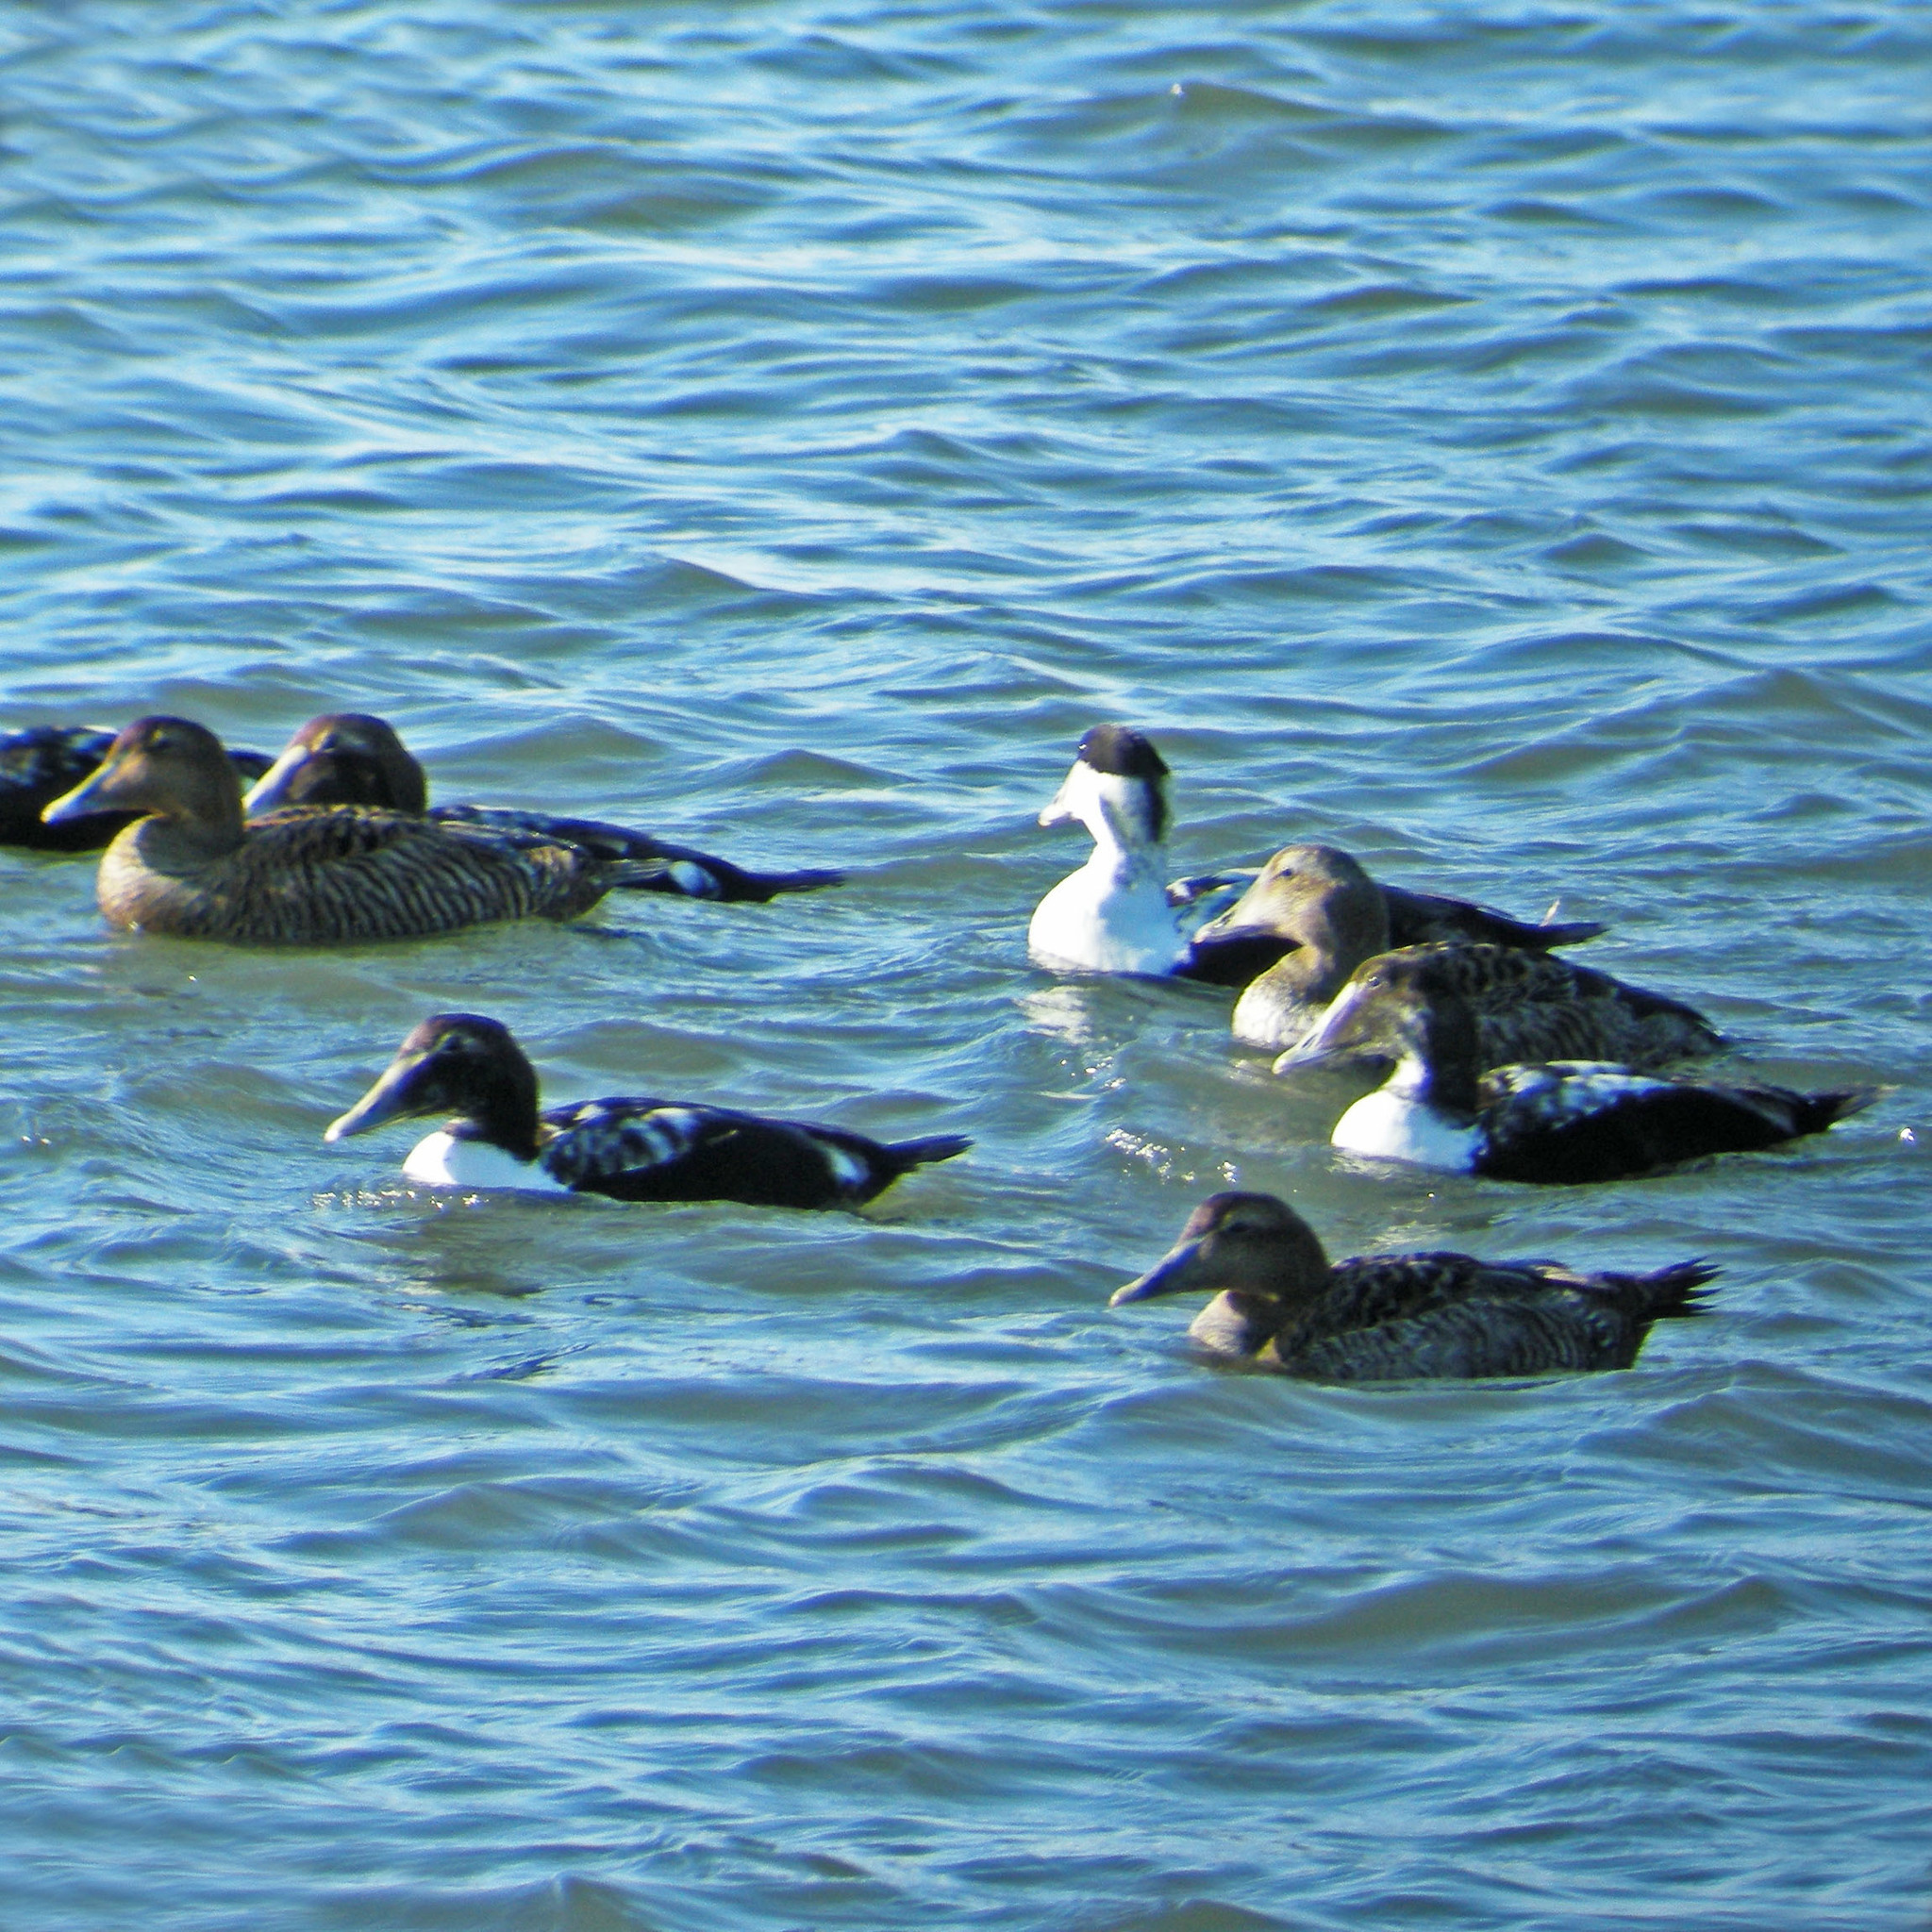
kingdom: Animalia
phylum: Chordata
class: Aves
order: Anseriformes
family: Anatidae
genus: Somateria
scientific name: Somateria mollissima
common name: Common eider
